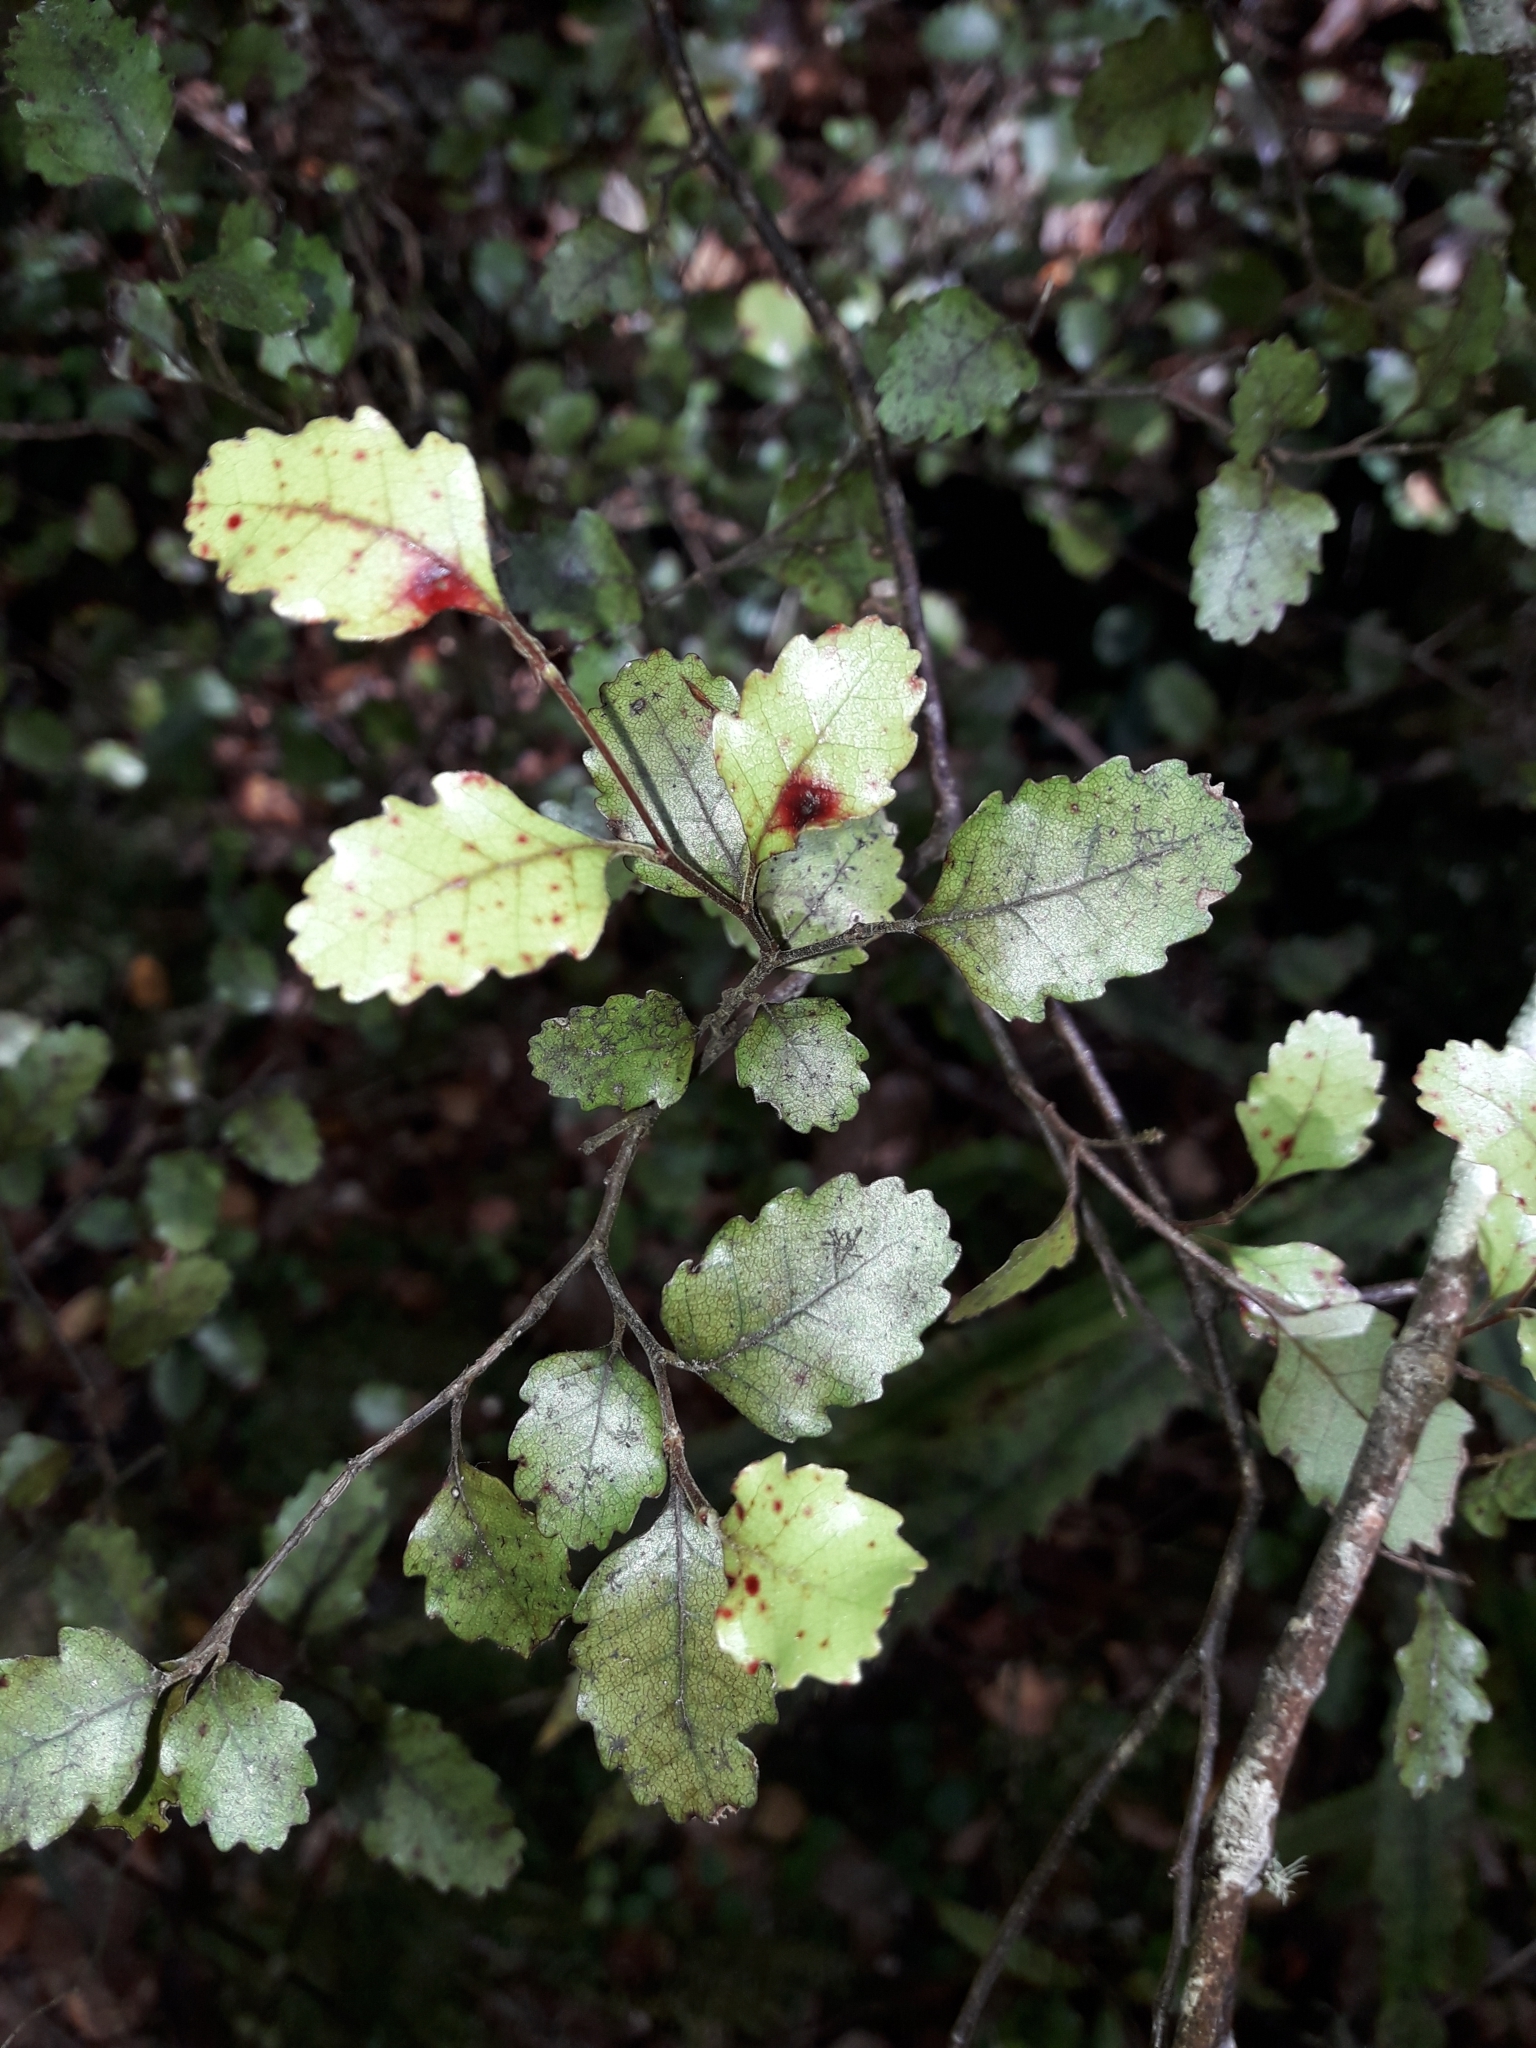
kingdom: Plantae
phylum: Tracheophyta
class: Magnoliopsida
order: Fagales
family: Nothofagaceae
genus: Nothofagus
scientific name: Nothofagus truncata
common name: Hard beech
